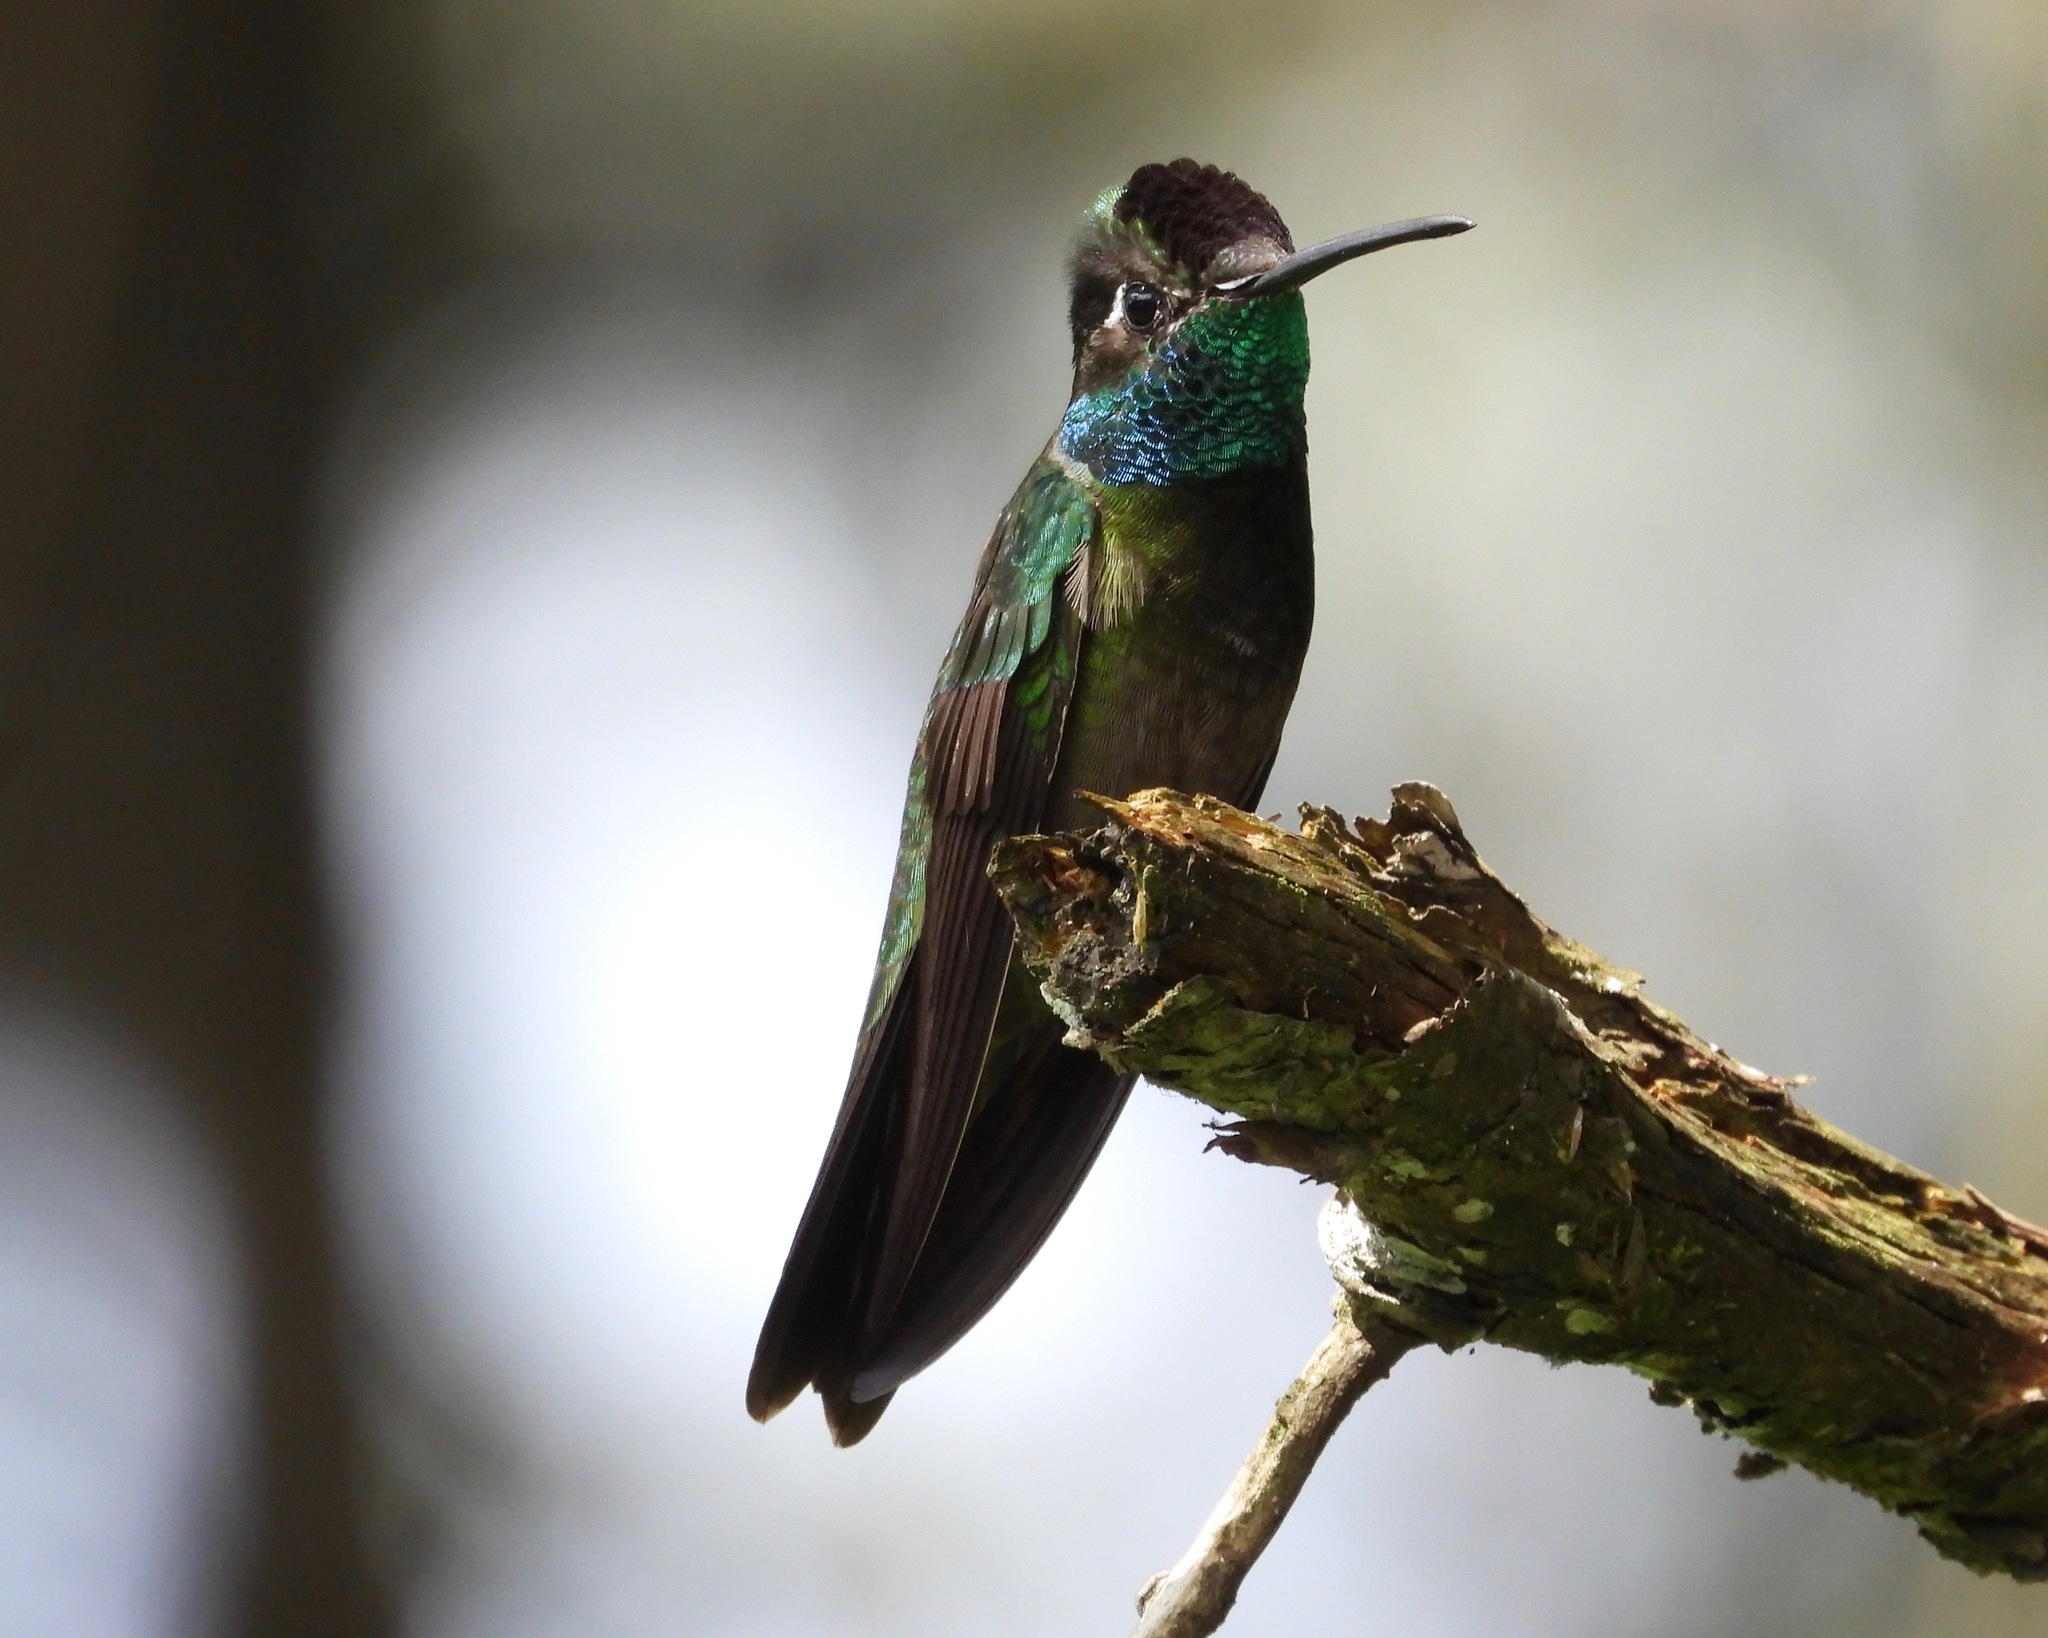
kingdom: Animalia
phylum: Chordata
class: Aves
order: Apodiformes
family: Trochilidae
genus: Eugenes
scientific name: Eugenes fulgens
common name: Magnificent hummingbird
